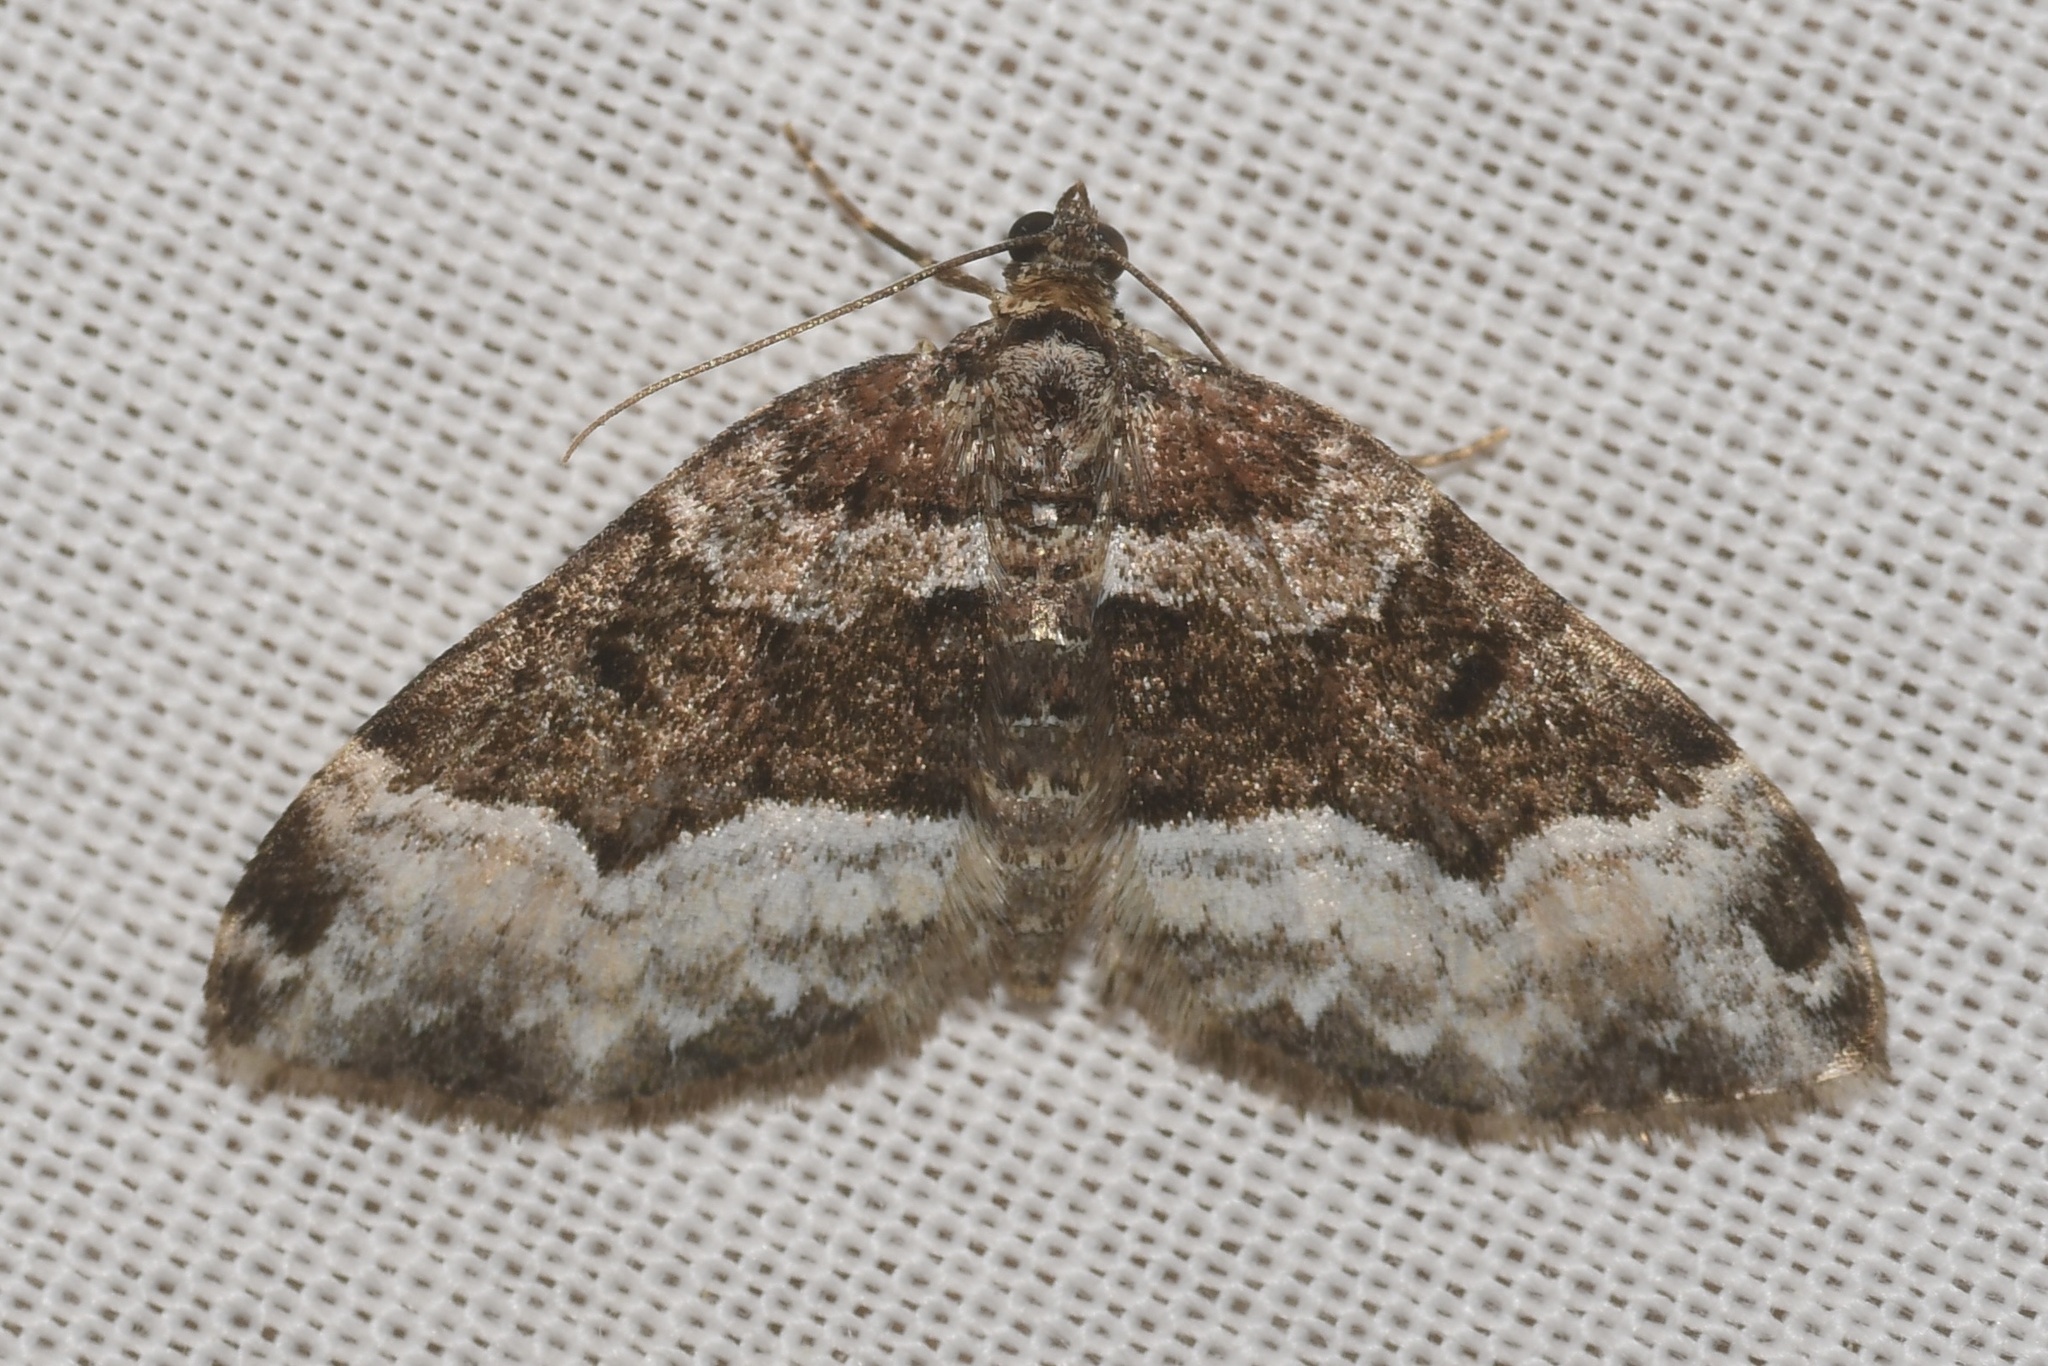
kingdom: Animalia
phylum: Arthropoda
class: Insecta
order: Lepidoptera
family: Geometridae
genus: Euphyia
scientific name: Euphyia intermediata
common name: Sharp-angled carpet
